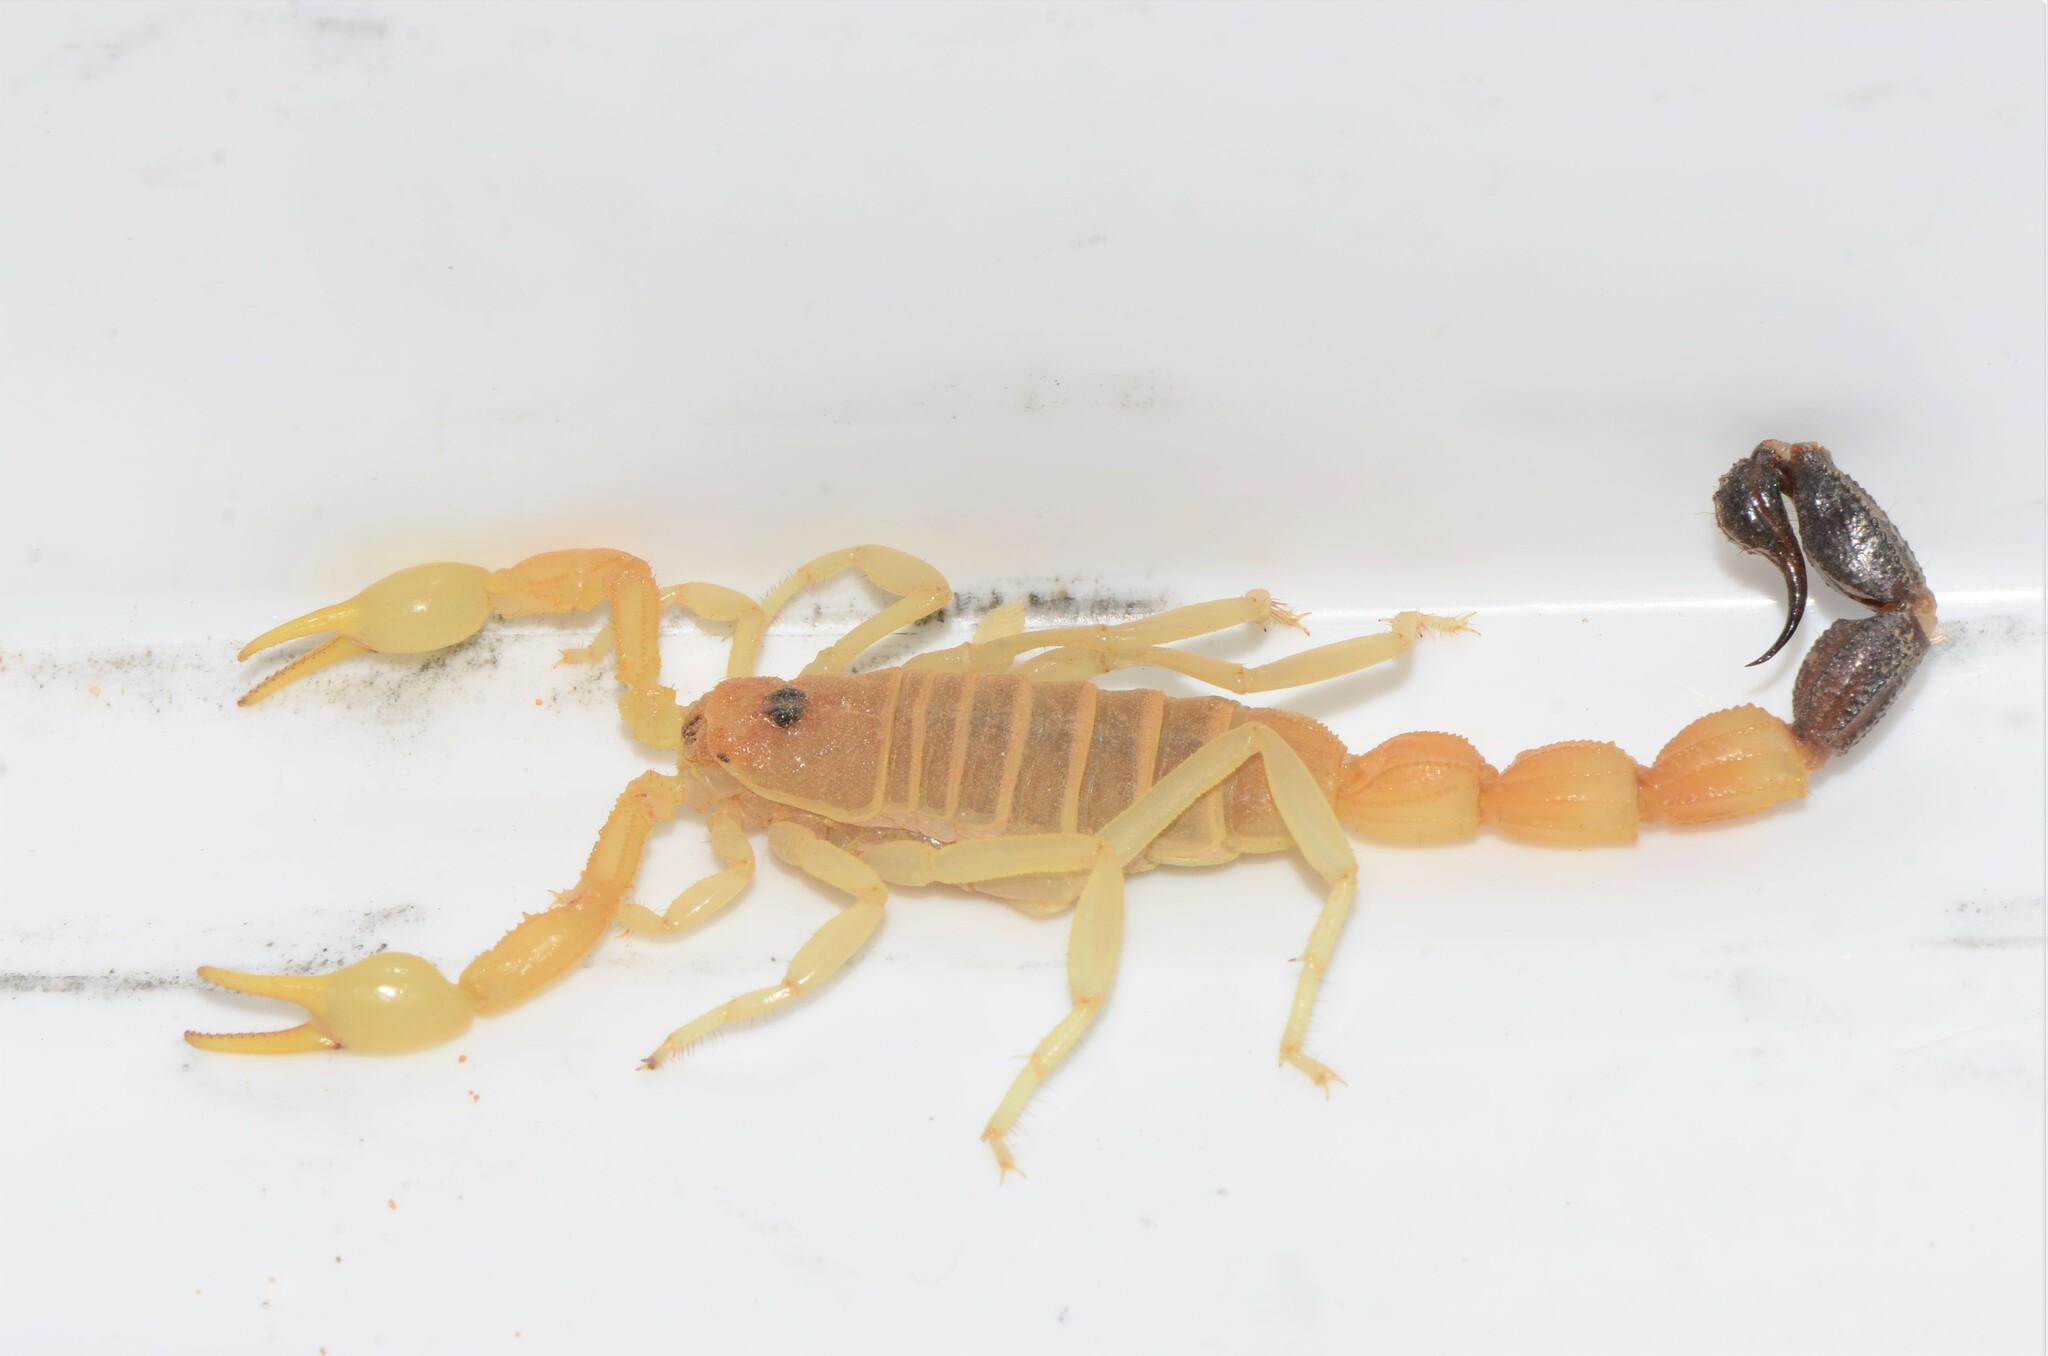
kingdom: Animalia
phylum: Arthropoda
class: Arachnida
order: Scorpiones
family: Buthidae
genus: Parabuthus
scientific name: Parabuthus laevifrons
